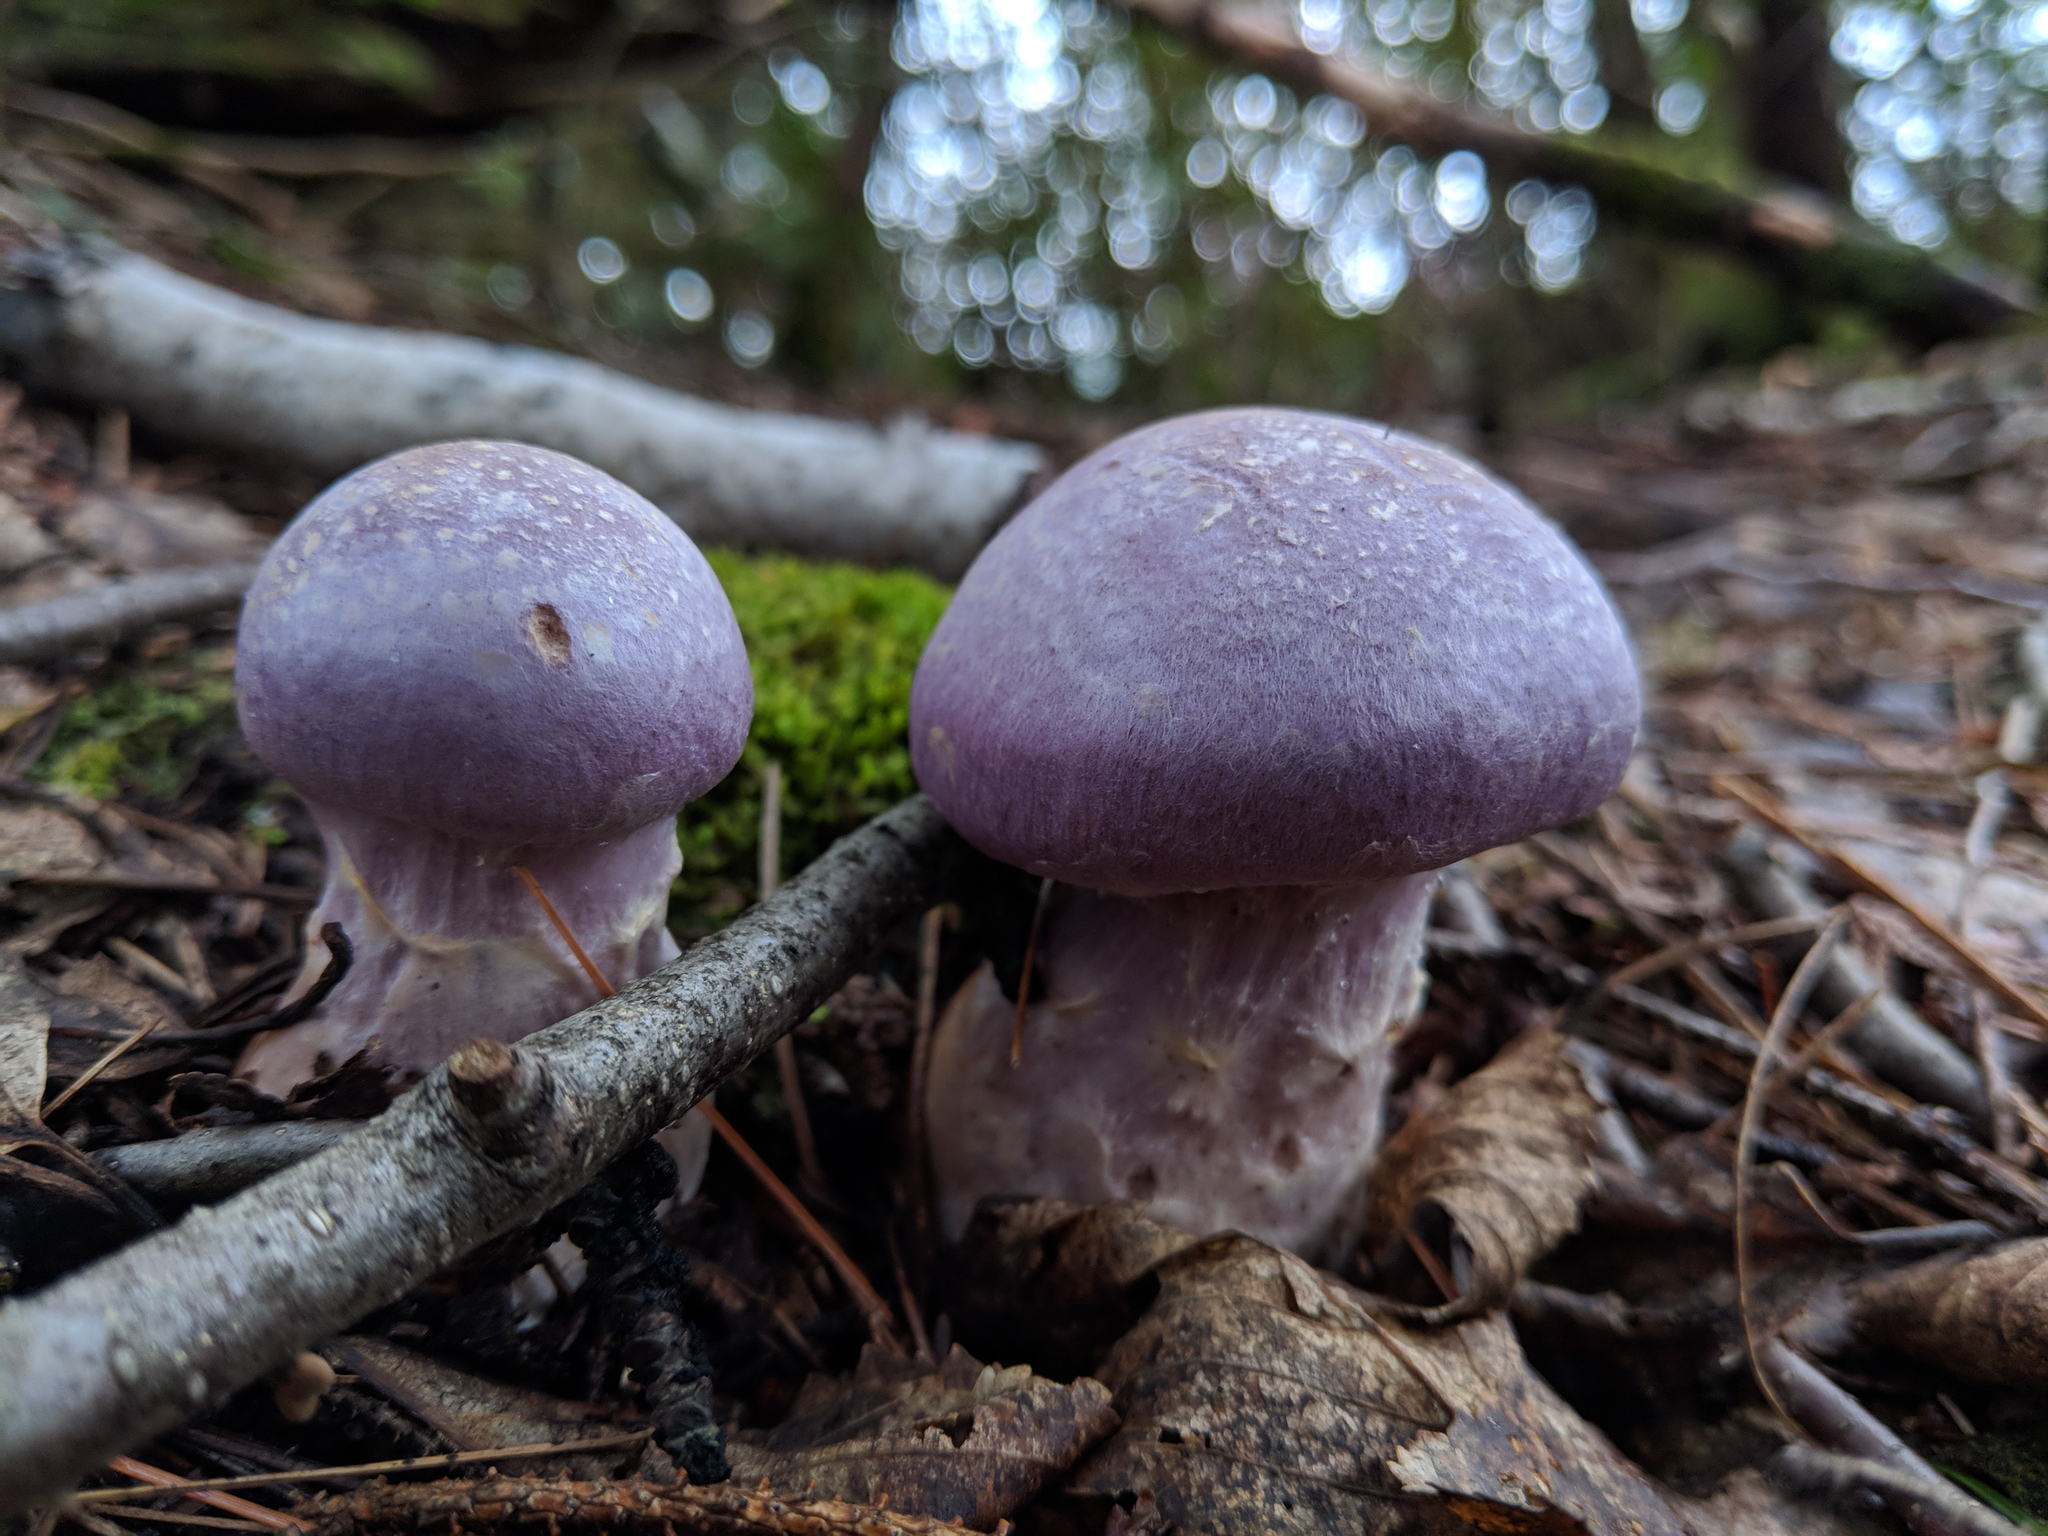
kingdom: Fungi
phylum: Basidiomycota
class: Agaricomycetes
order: Agaricales
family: Cortinariaceae
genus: Cortinarius
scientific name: Cortinarius traganus
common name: Gassy webcap
